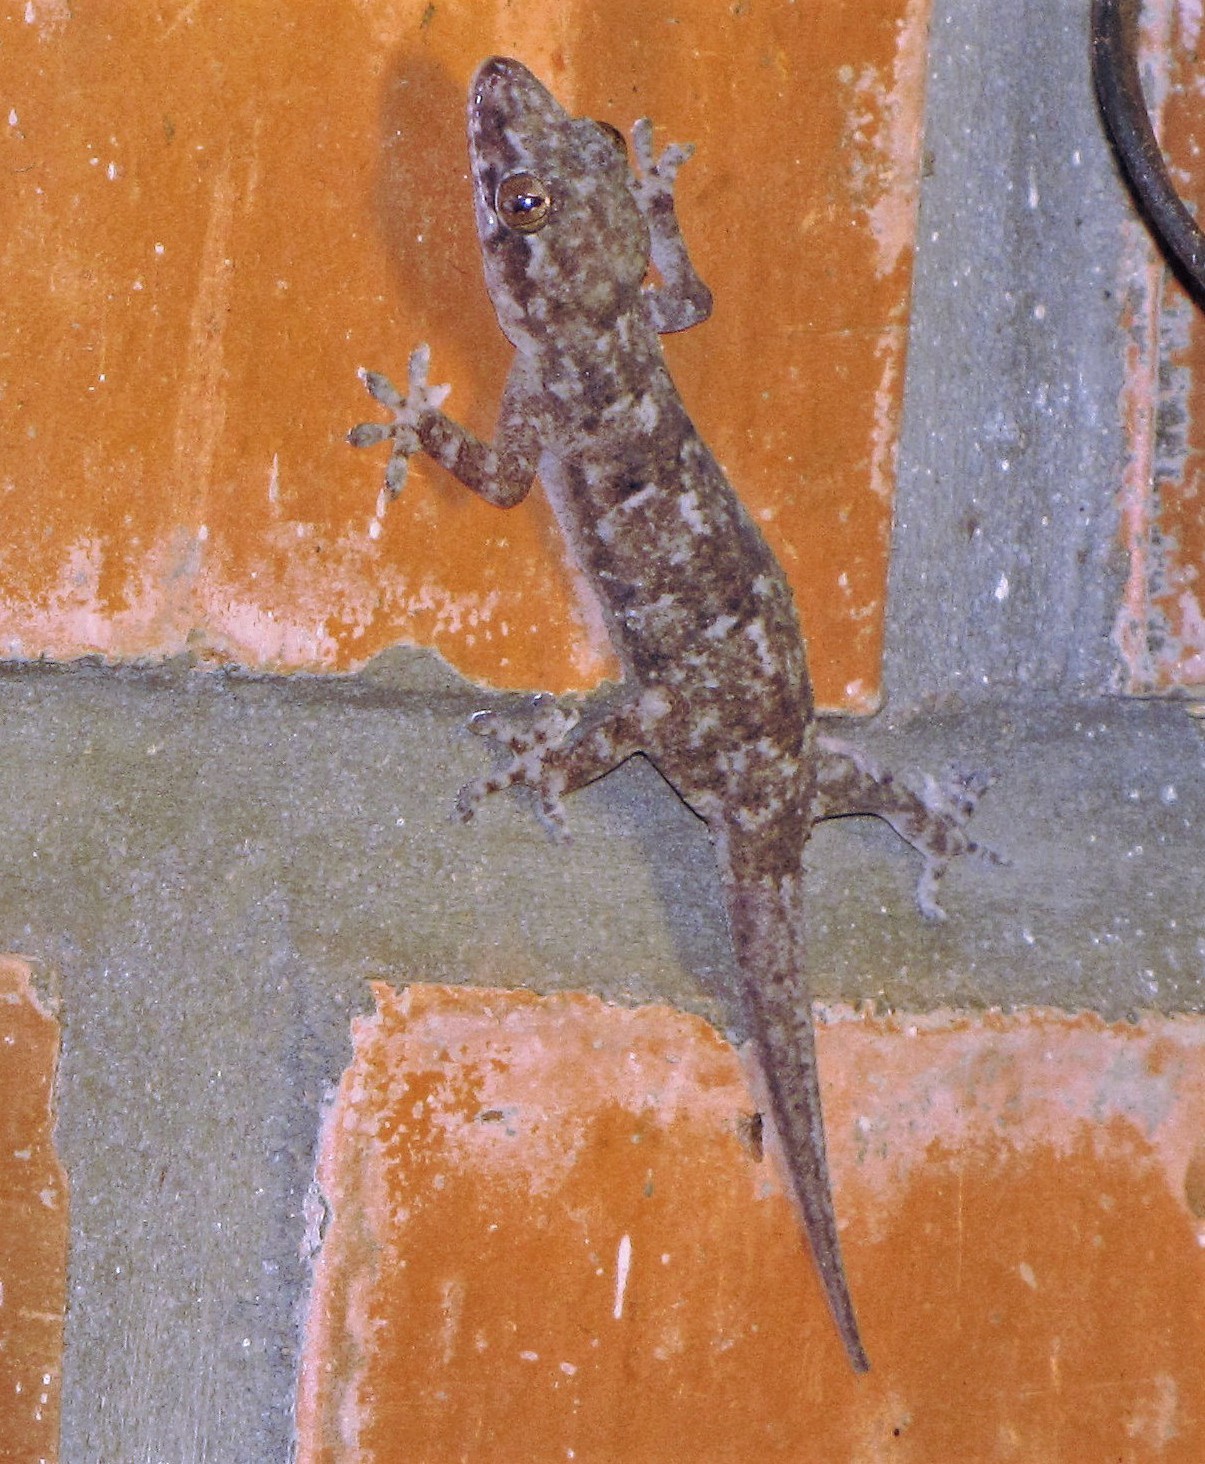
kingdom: Animalia
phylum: Chordata
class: Squamata
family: Gekkonidae
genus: Hemidactylus
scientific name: Hemidactylus mabouia
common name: House gecko
